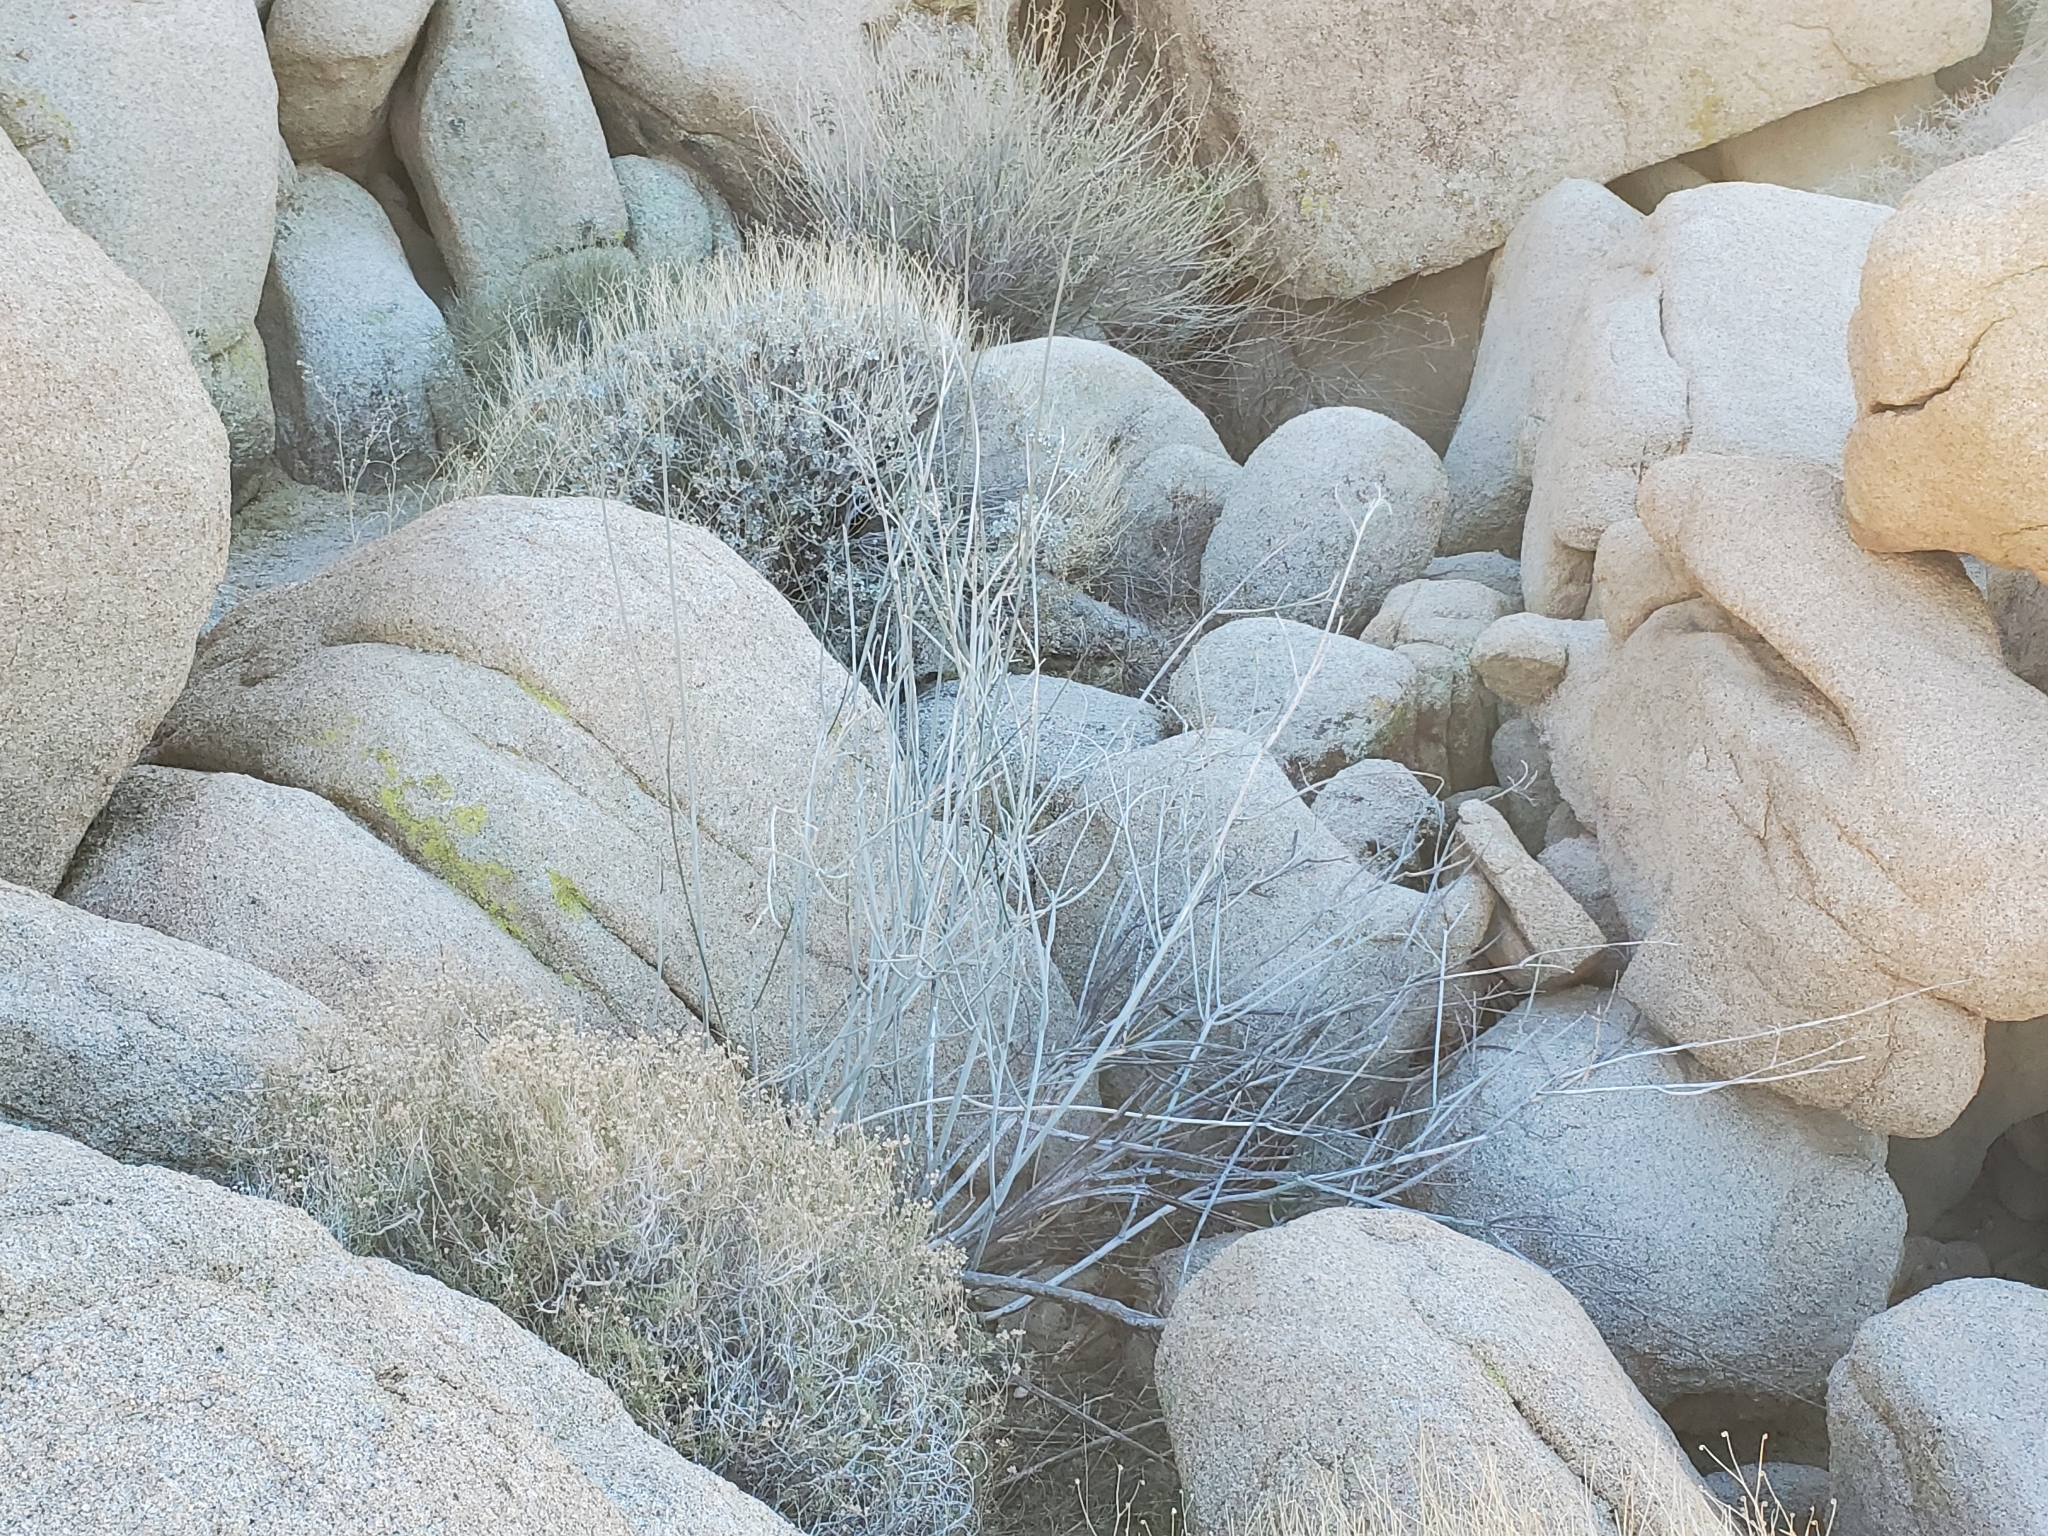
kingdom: Plantae
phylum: Tracheophyta
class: Magnoliopsida
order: Gentianales
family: Apocynaceae
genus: Asclepias
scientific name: Asclepias albicans
